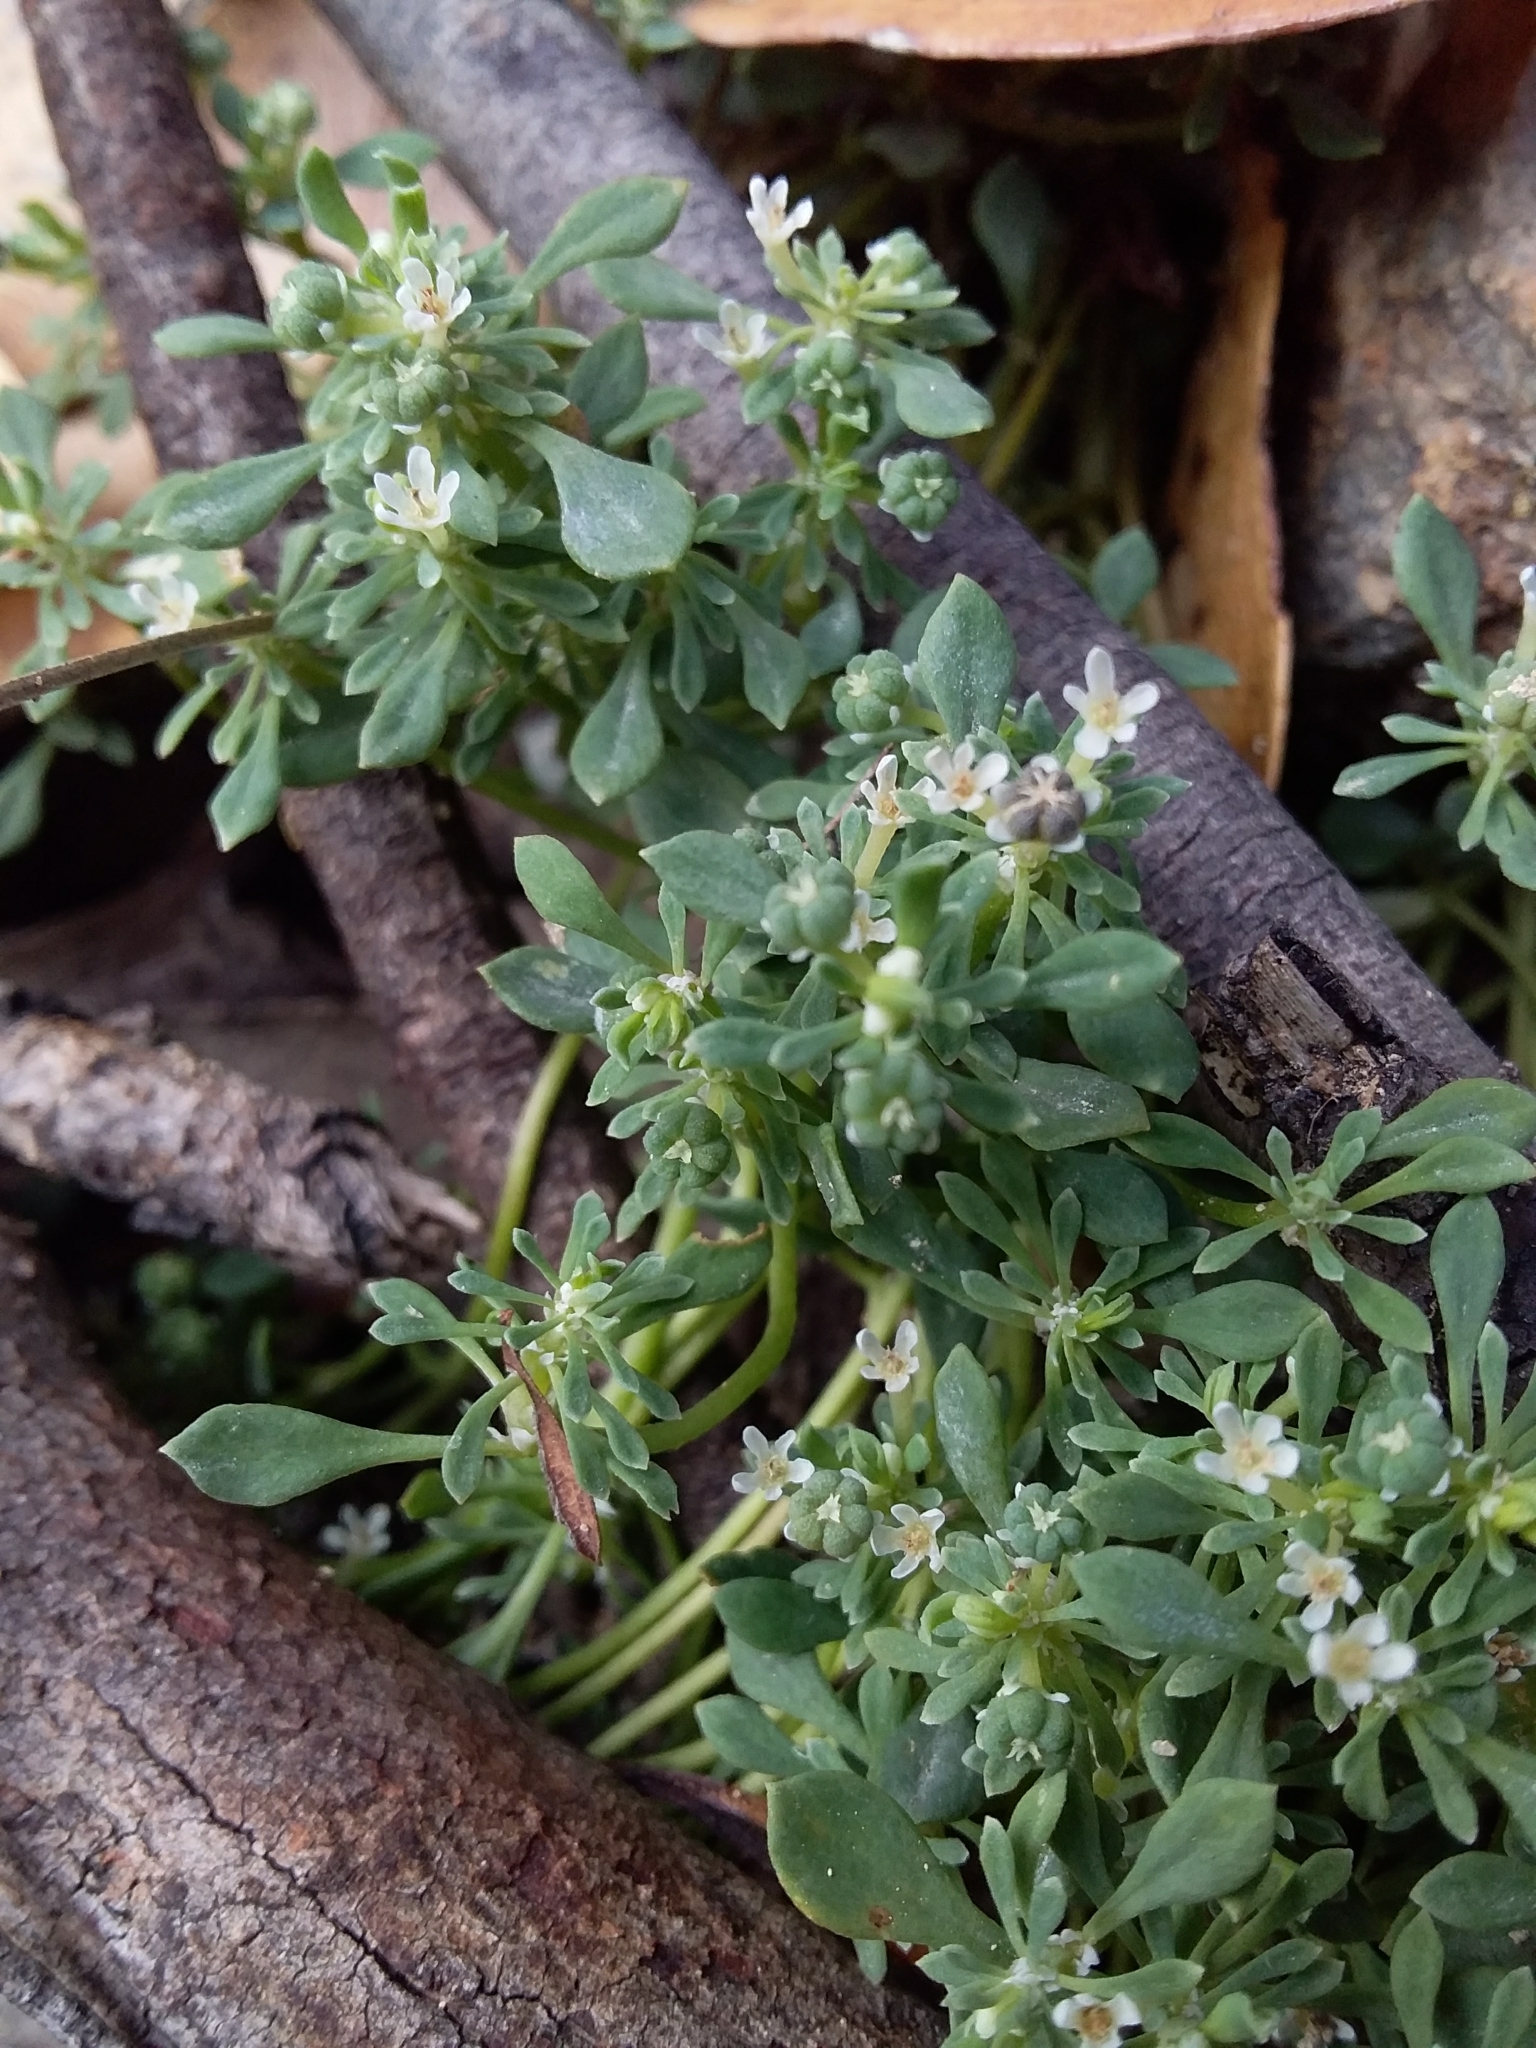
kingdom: Plantae
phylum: Tracheophyta
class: Magnoliopsida
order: Malpighiales
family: Phyllanthaceae
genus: Poranthera
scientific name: Poranthera microphylla
